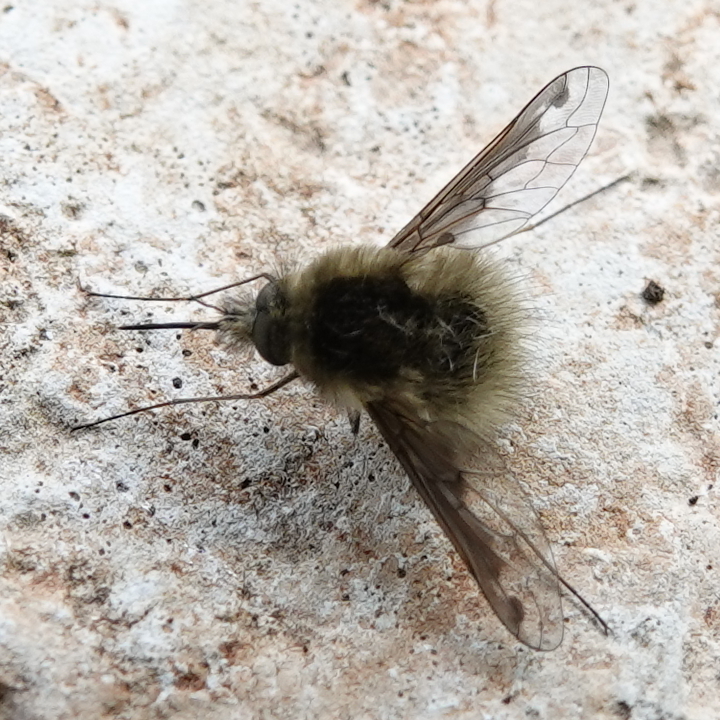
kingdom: Animalia
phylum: Arthropoda
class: Insecta
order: Diptera
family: Bombyliidae
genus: Bombylius
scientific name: Bombylius major
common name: Bee fly
